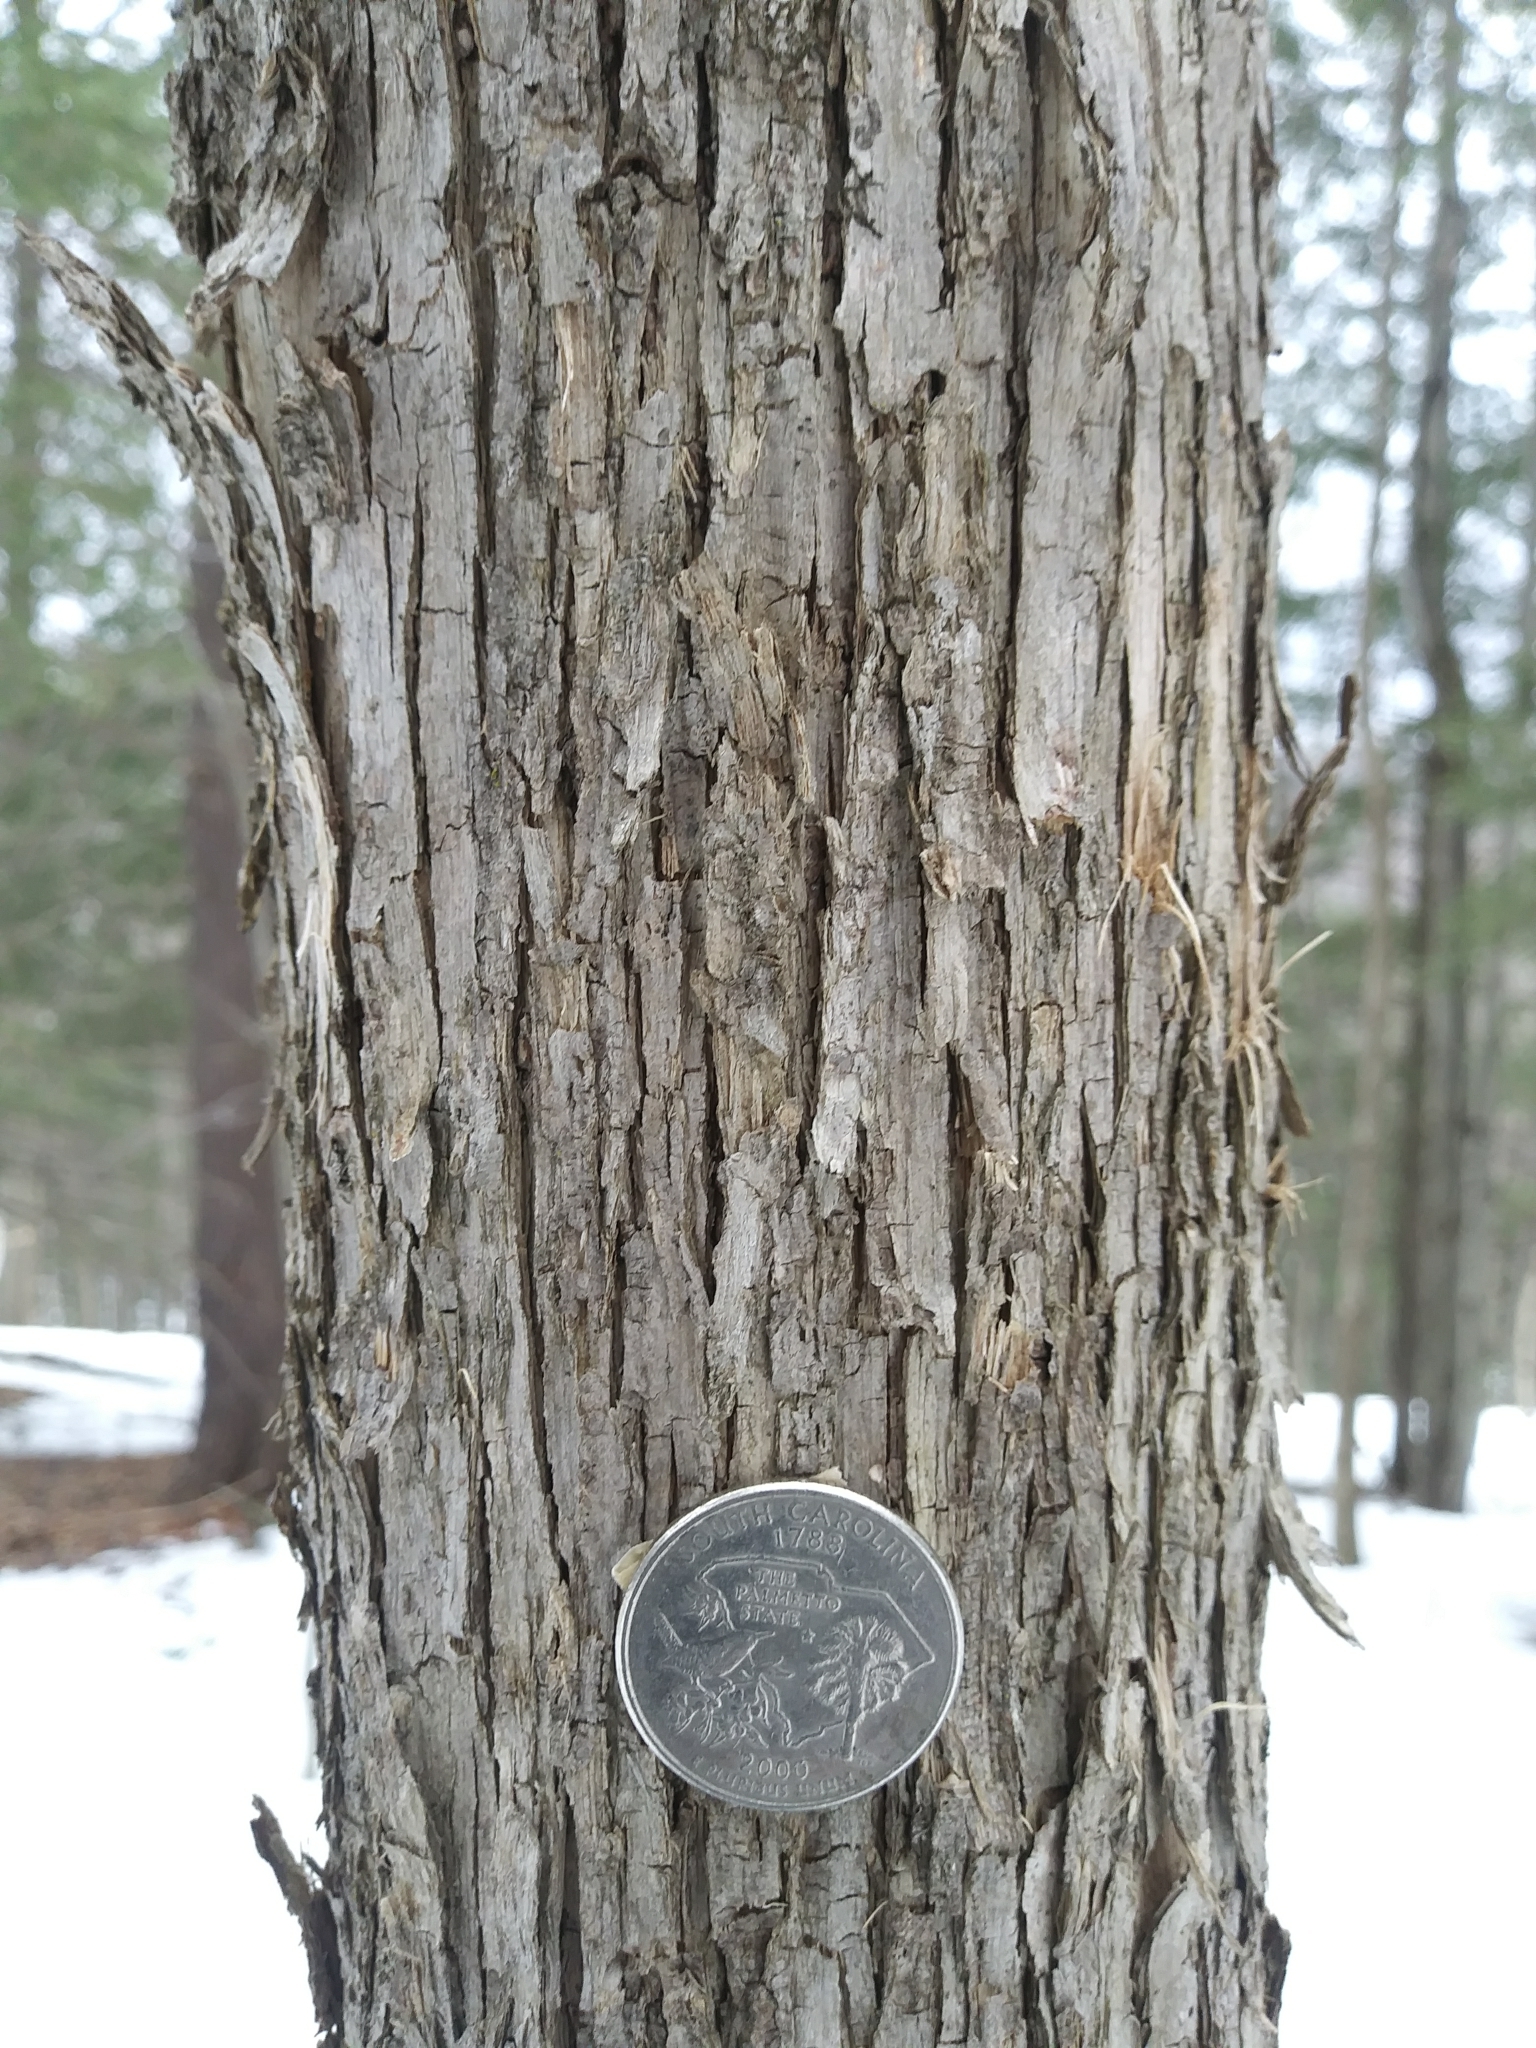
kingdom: Plantae
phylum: Tracheophyta
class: Magnoliopsida
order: Fagales
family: Betulaceae
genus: Ostrya
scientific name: Ostrya virginiana
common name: Ironwood
